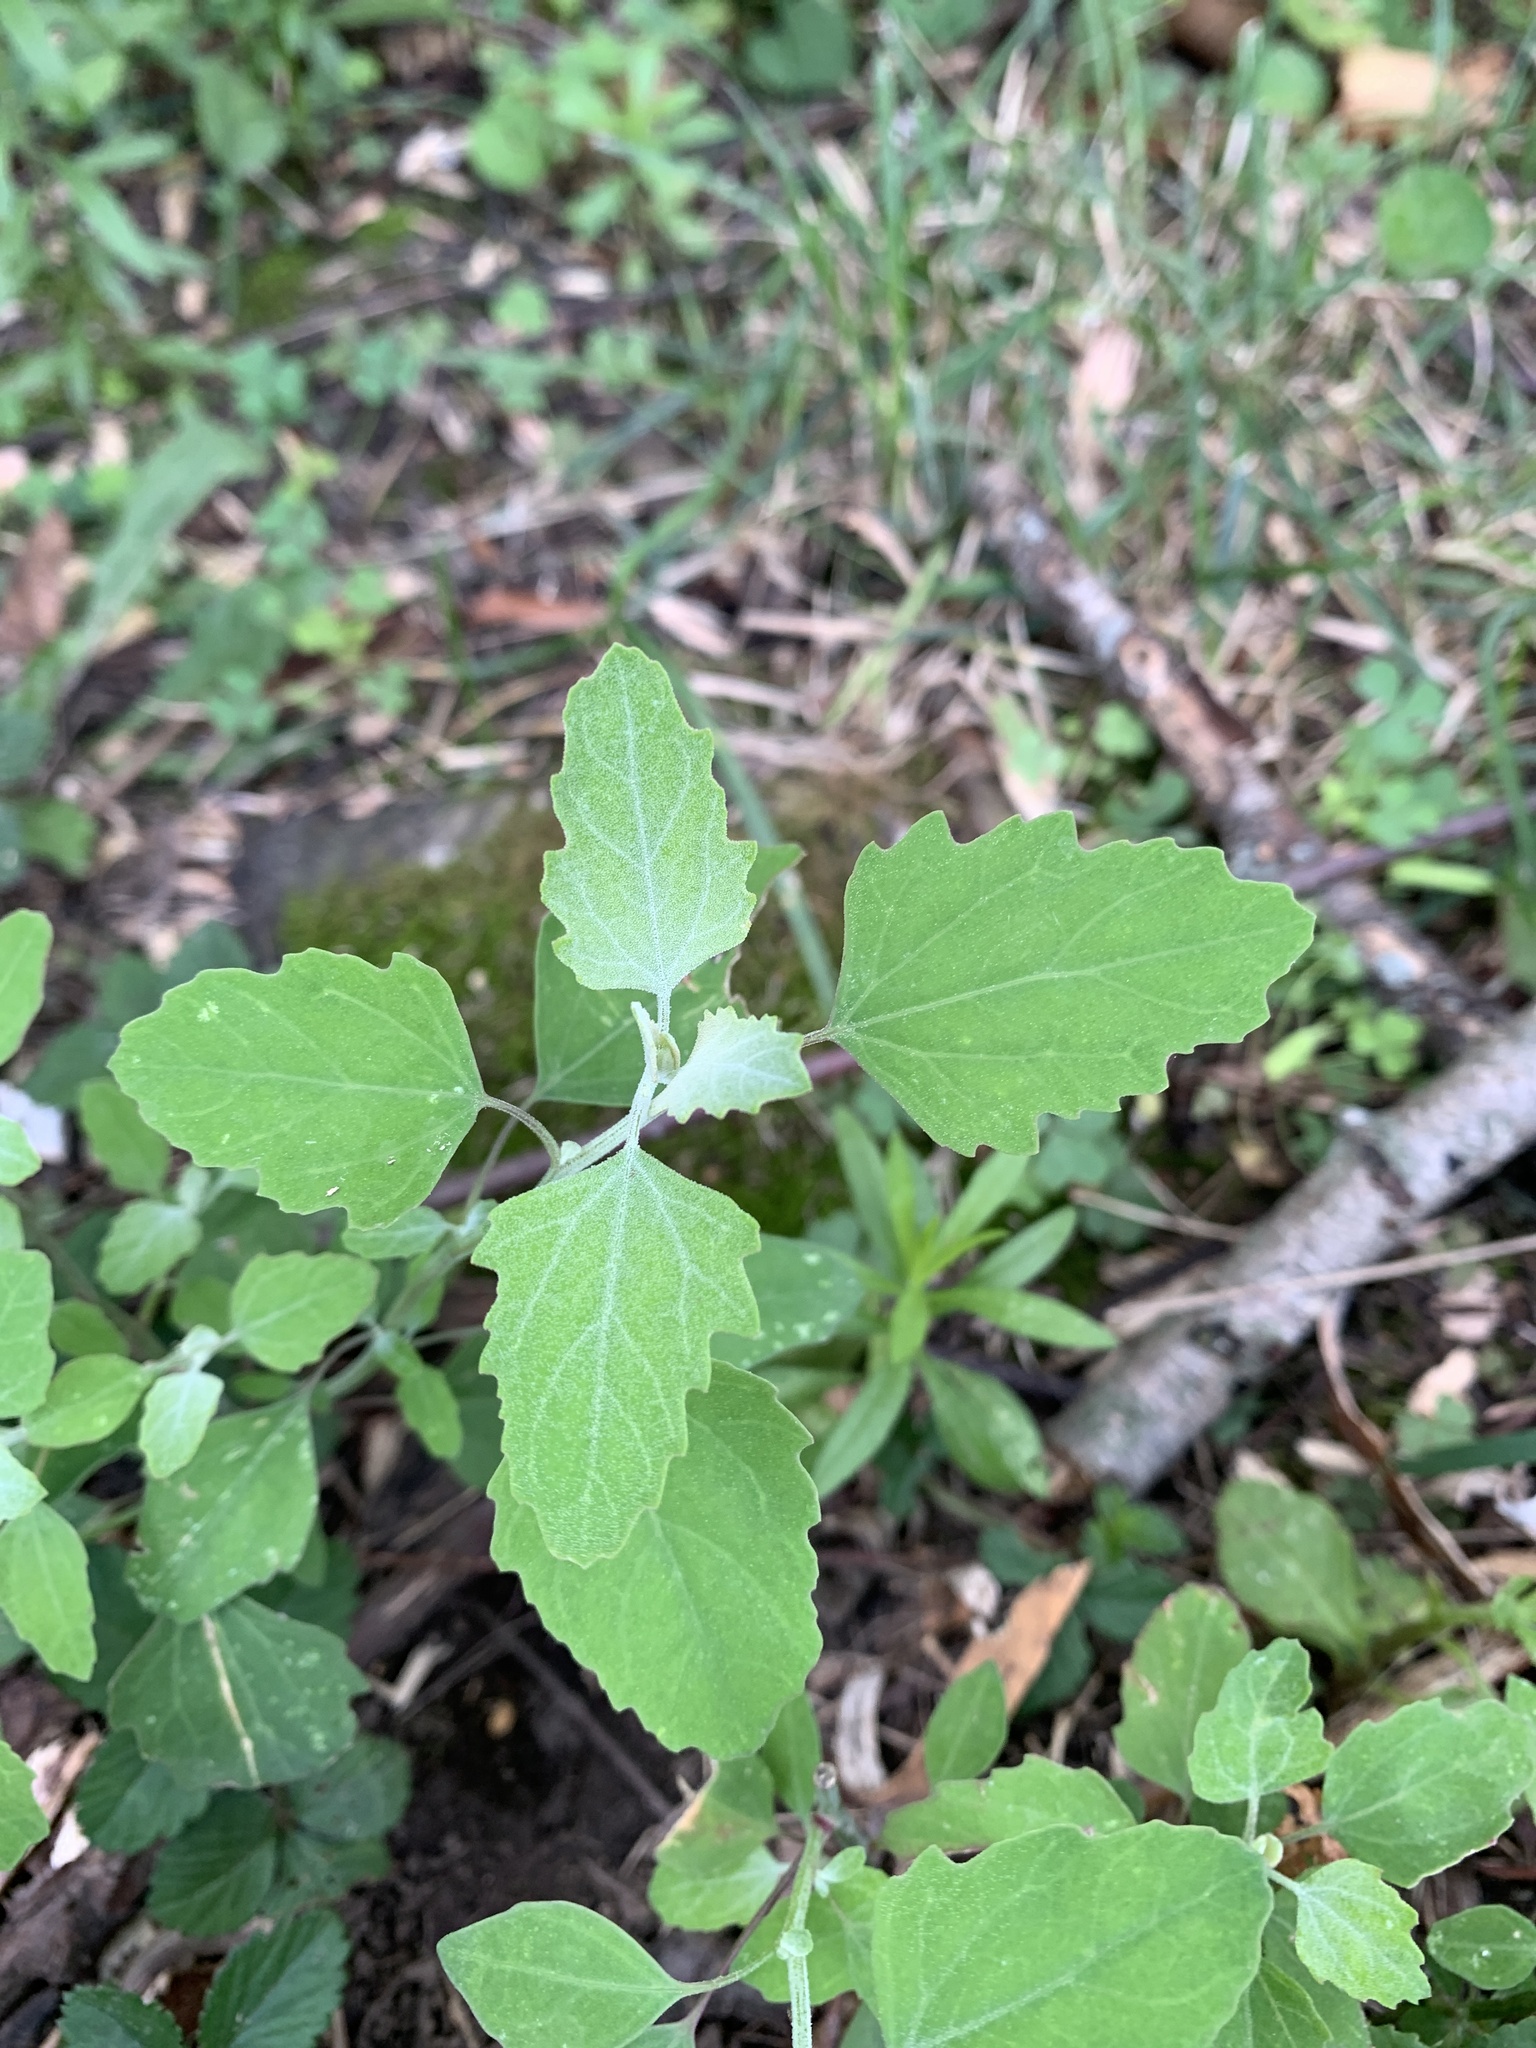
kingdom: Plantae
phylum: Tracheophyta
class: Magnoliopsida
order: Caryophyllales
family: Amaranthaceae
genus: Chenopodium
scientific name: Chenopodium album
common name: Fat-hen
